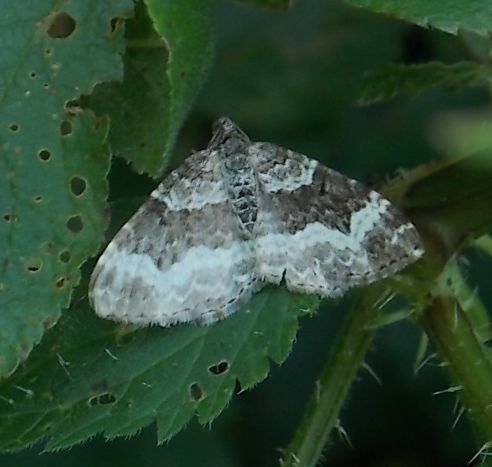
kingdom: Animalia
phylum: Arthropoda
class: Insecta
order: Lepidoptera
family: Geometridae
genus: Epirrhoe
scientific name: Epirrhoe alternata
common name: Common carpet
